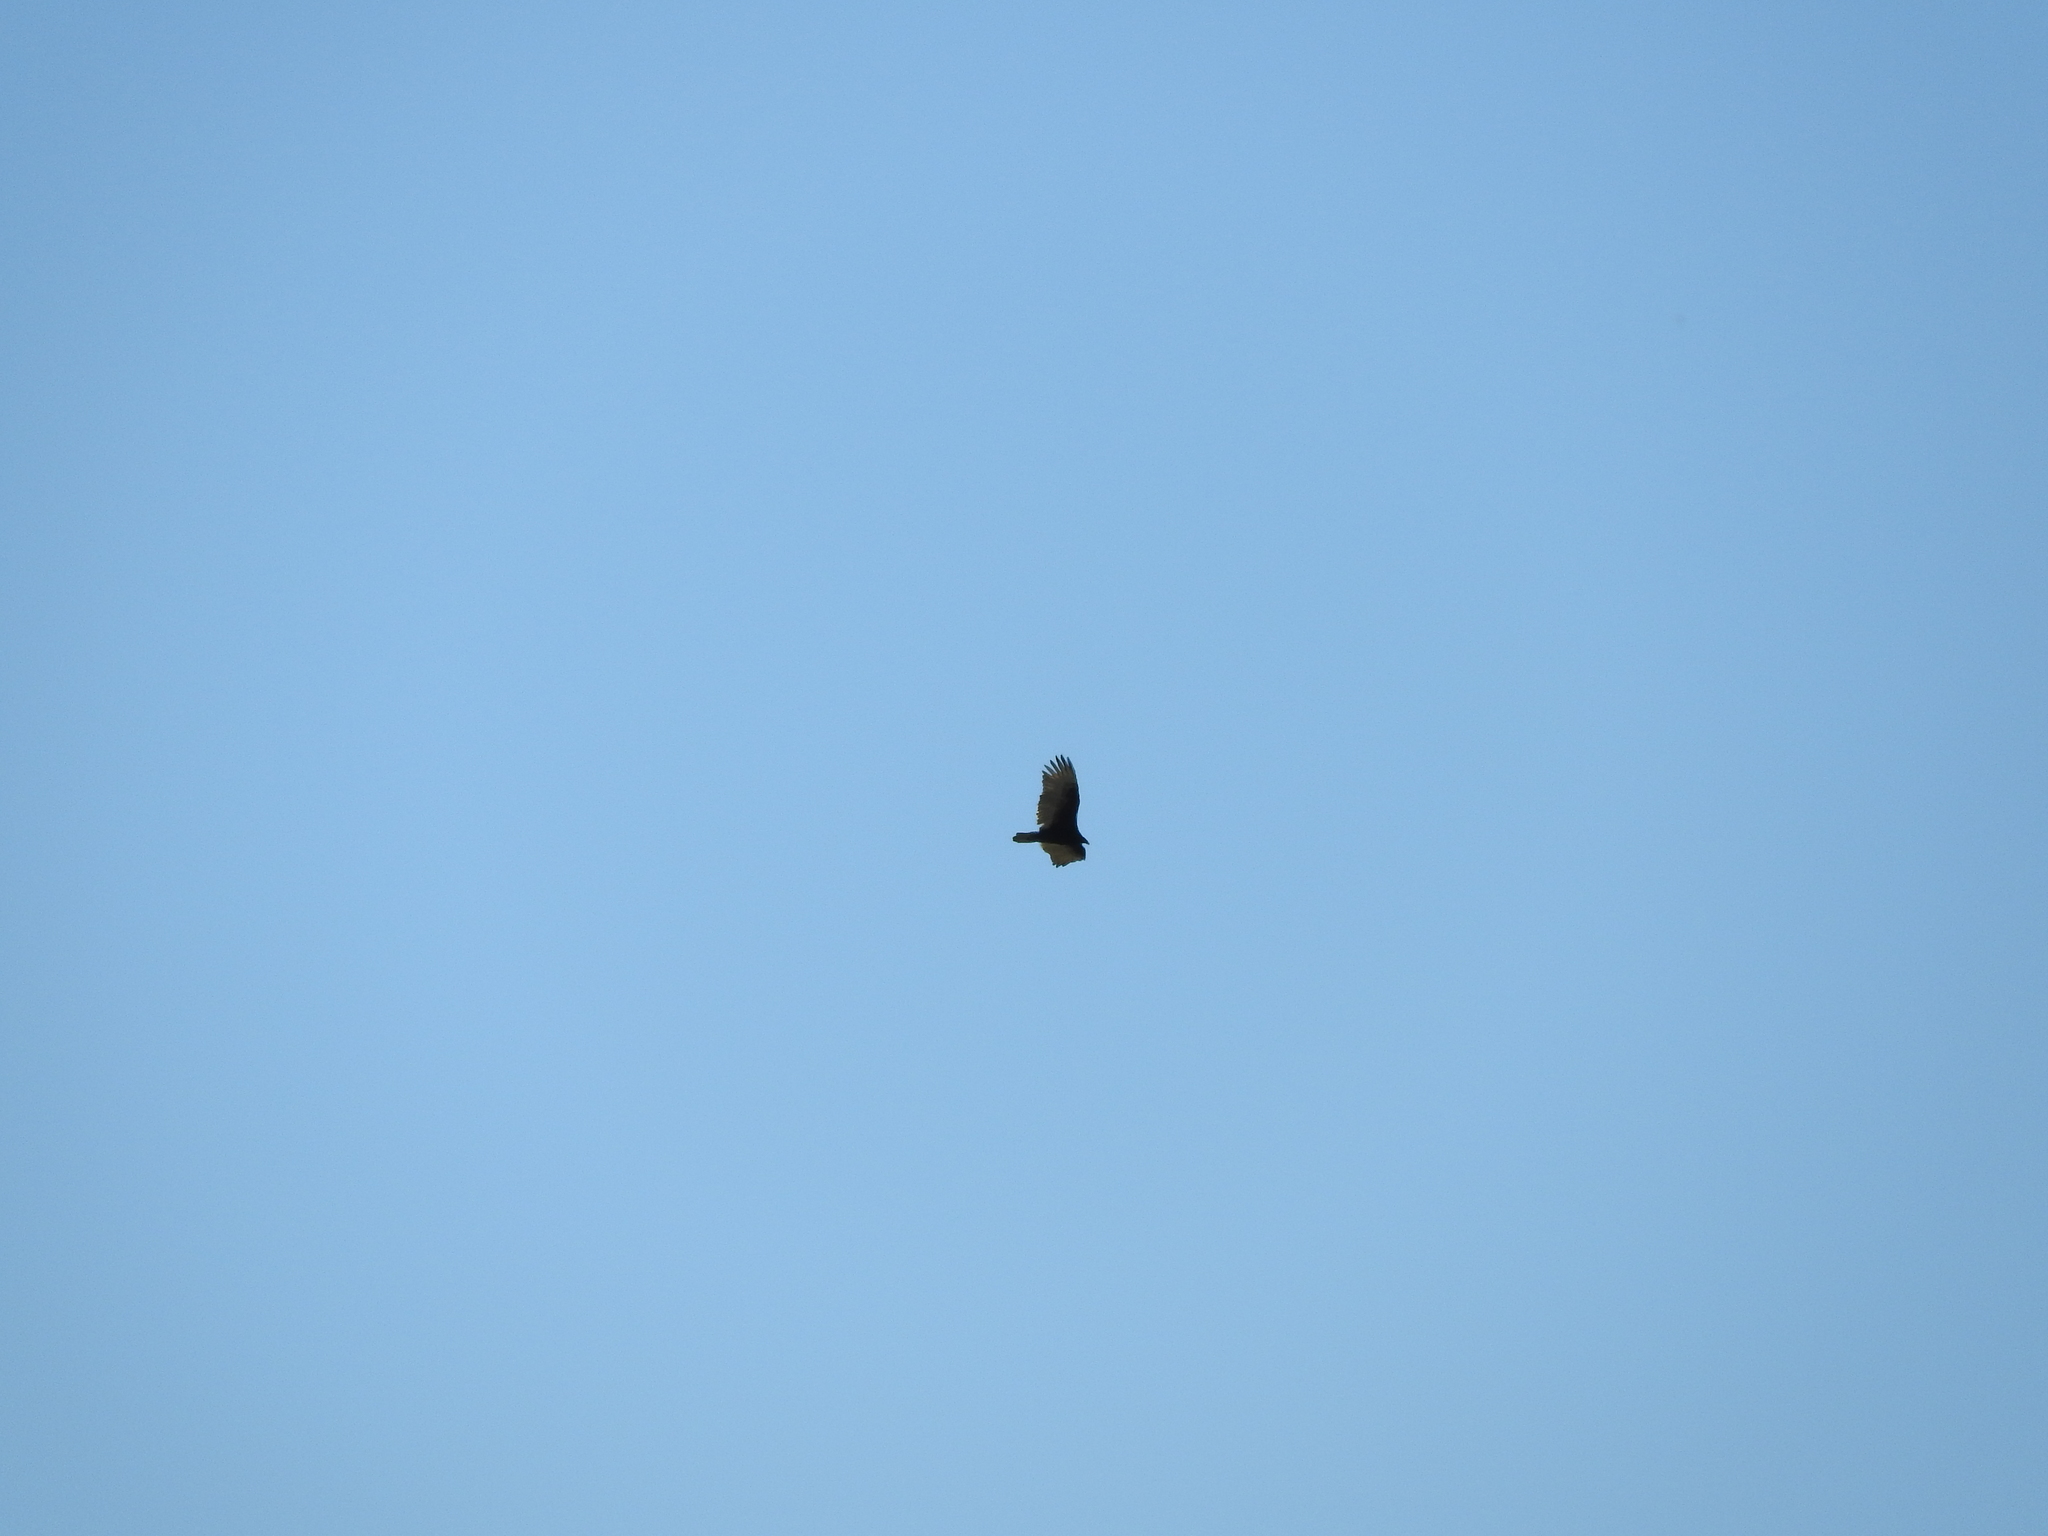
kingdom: Animalia
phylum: Chordata
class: Aves
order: Accipitriformes
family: Cathartidae
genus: Cathartes
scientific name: Cathartes aura
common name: Turkey vulture
